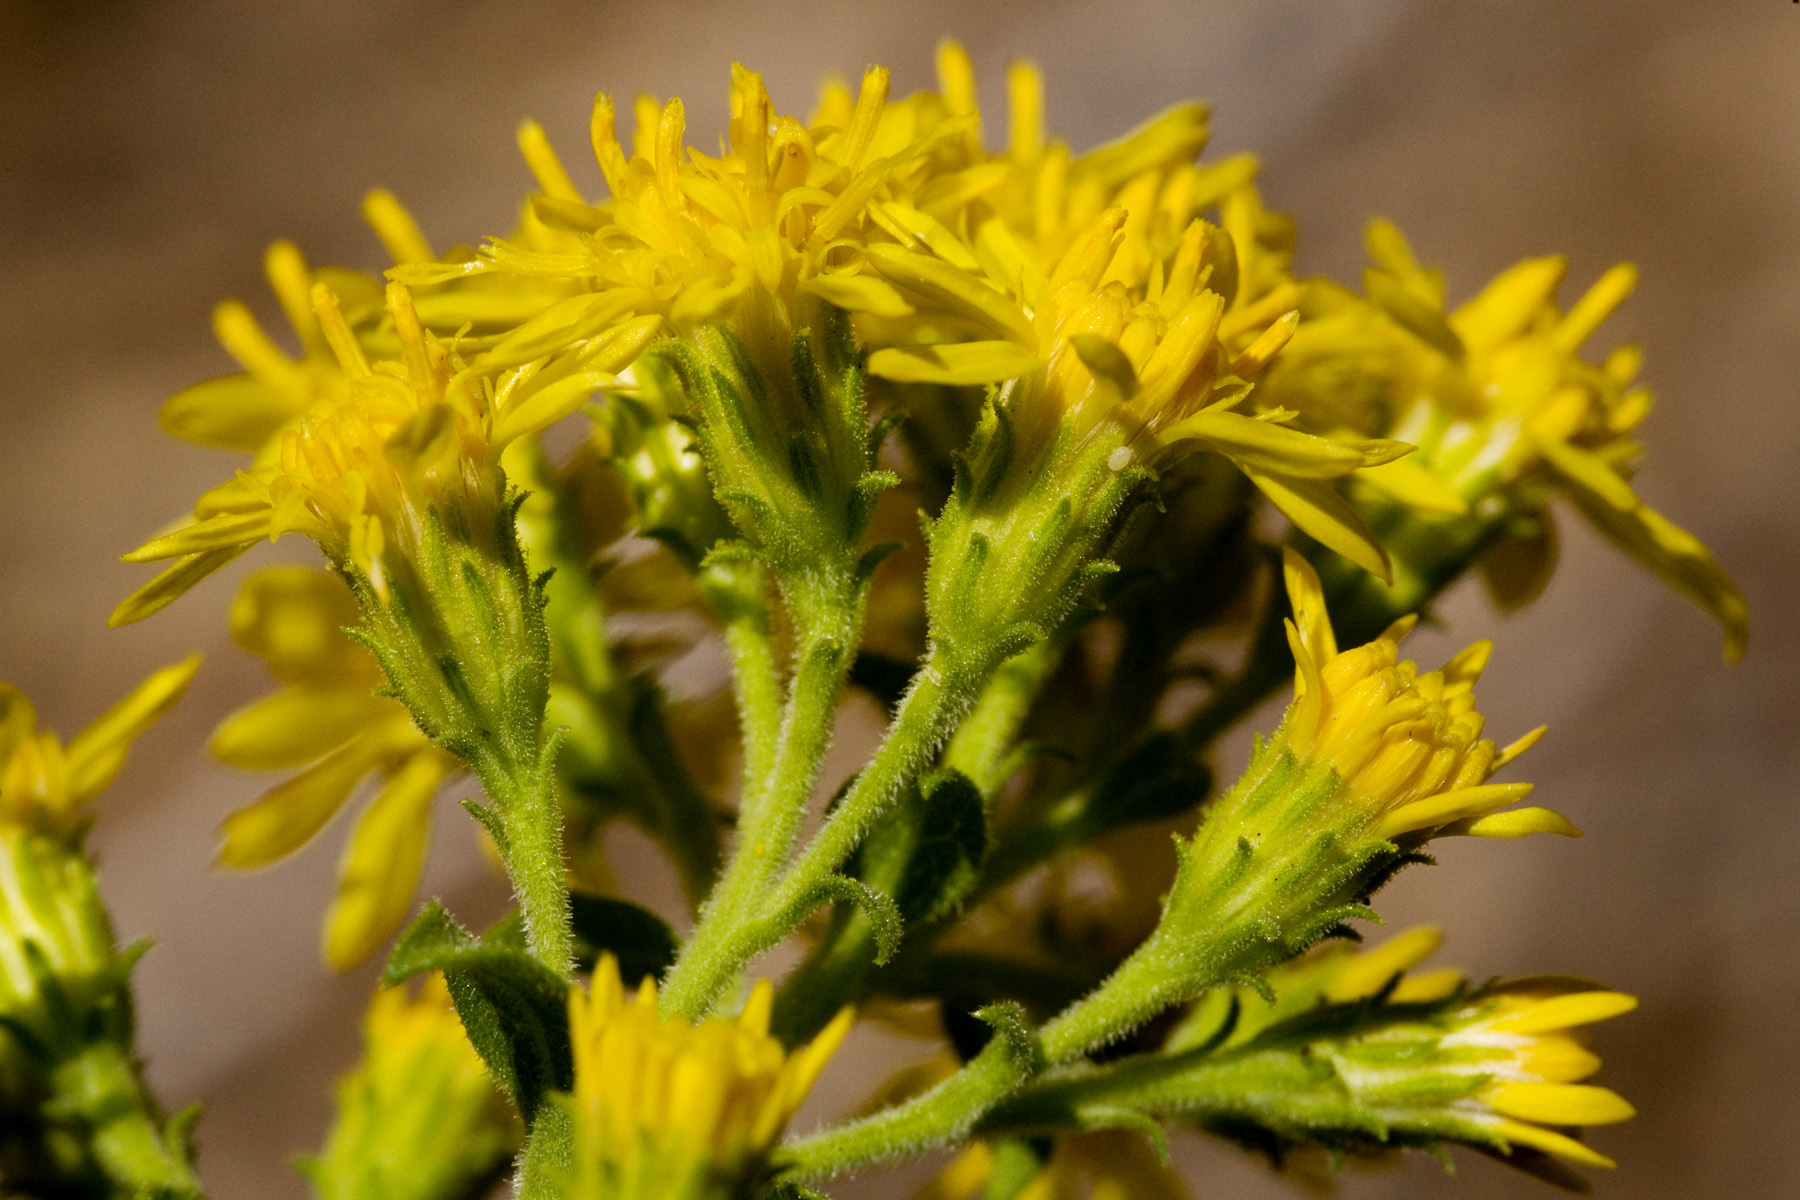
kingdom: Plantae
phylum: Tracheophyta
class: Magnoliopsida
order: Asterales
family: Asteraceae
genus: Solidago
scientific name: Solidago wrightii
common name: Wright's goldenrod
